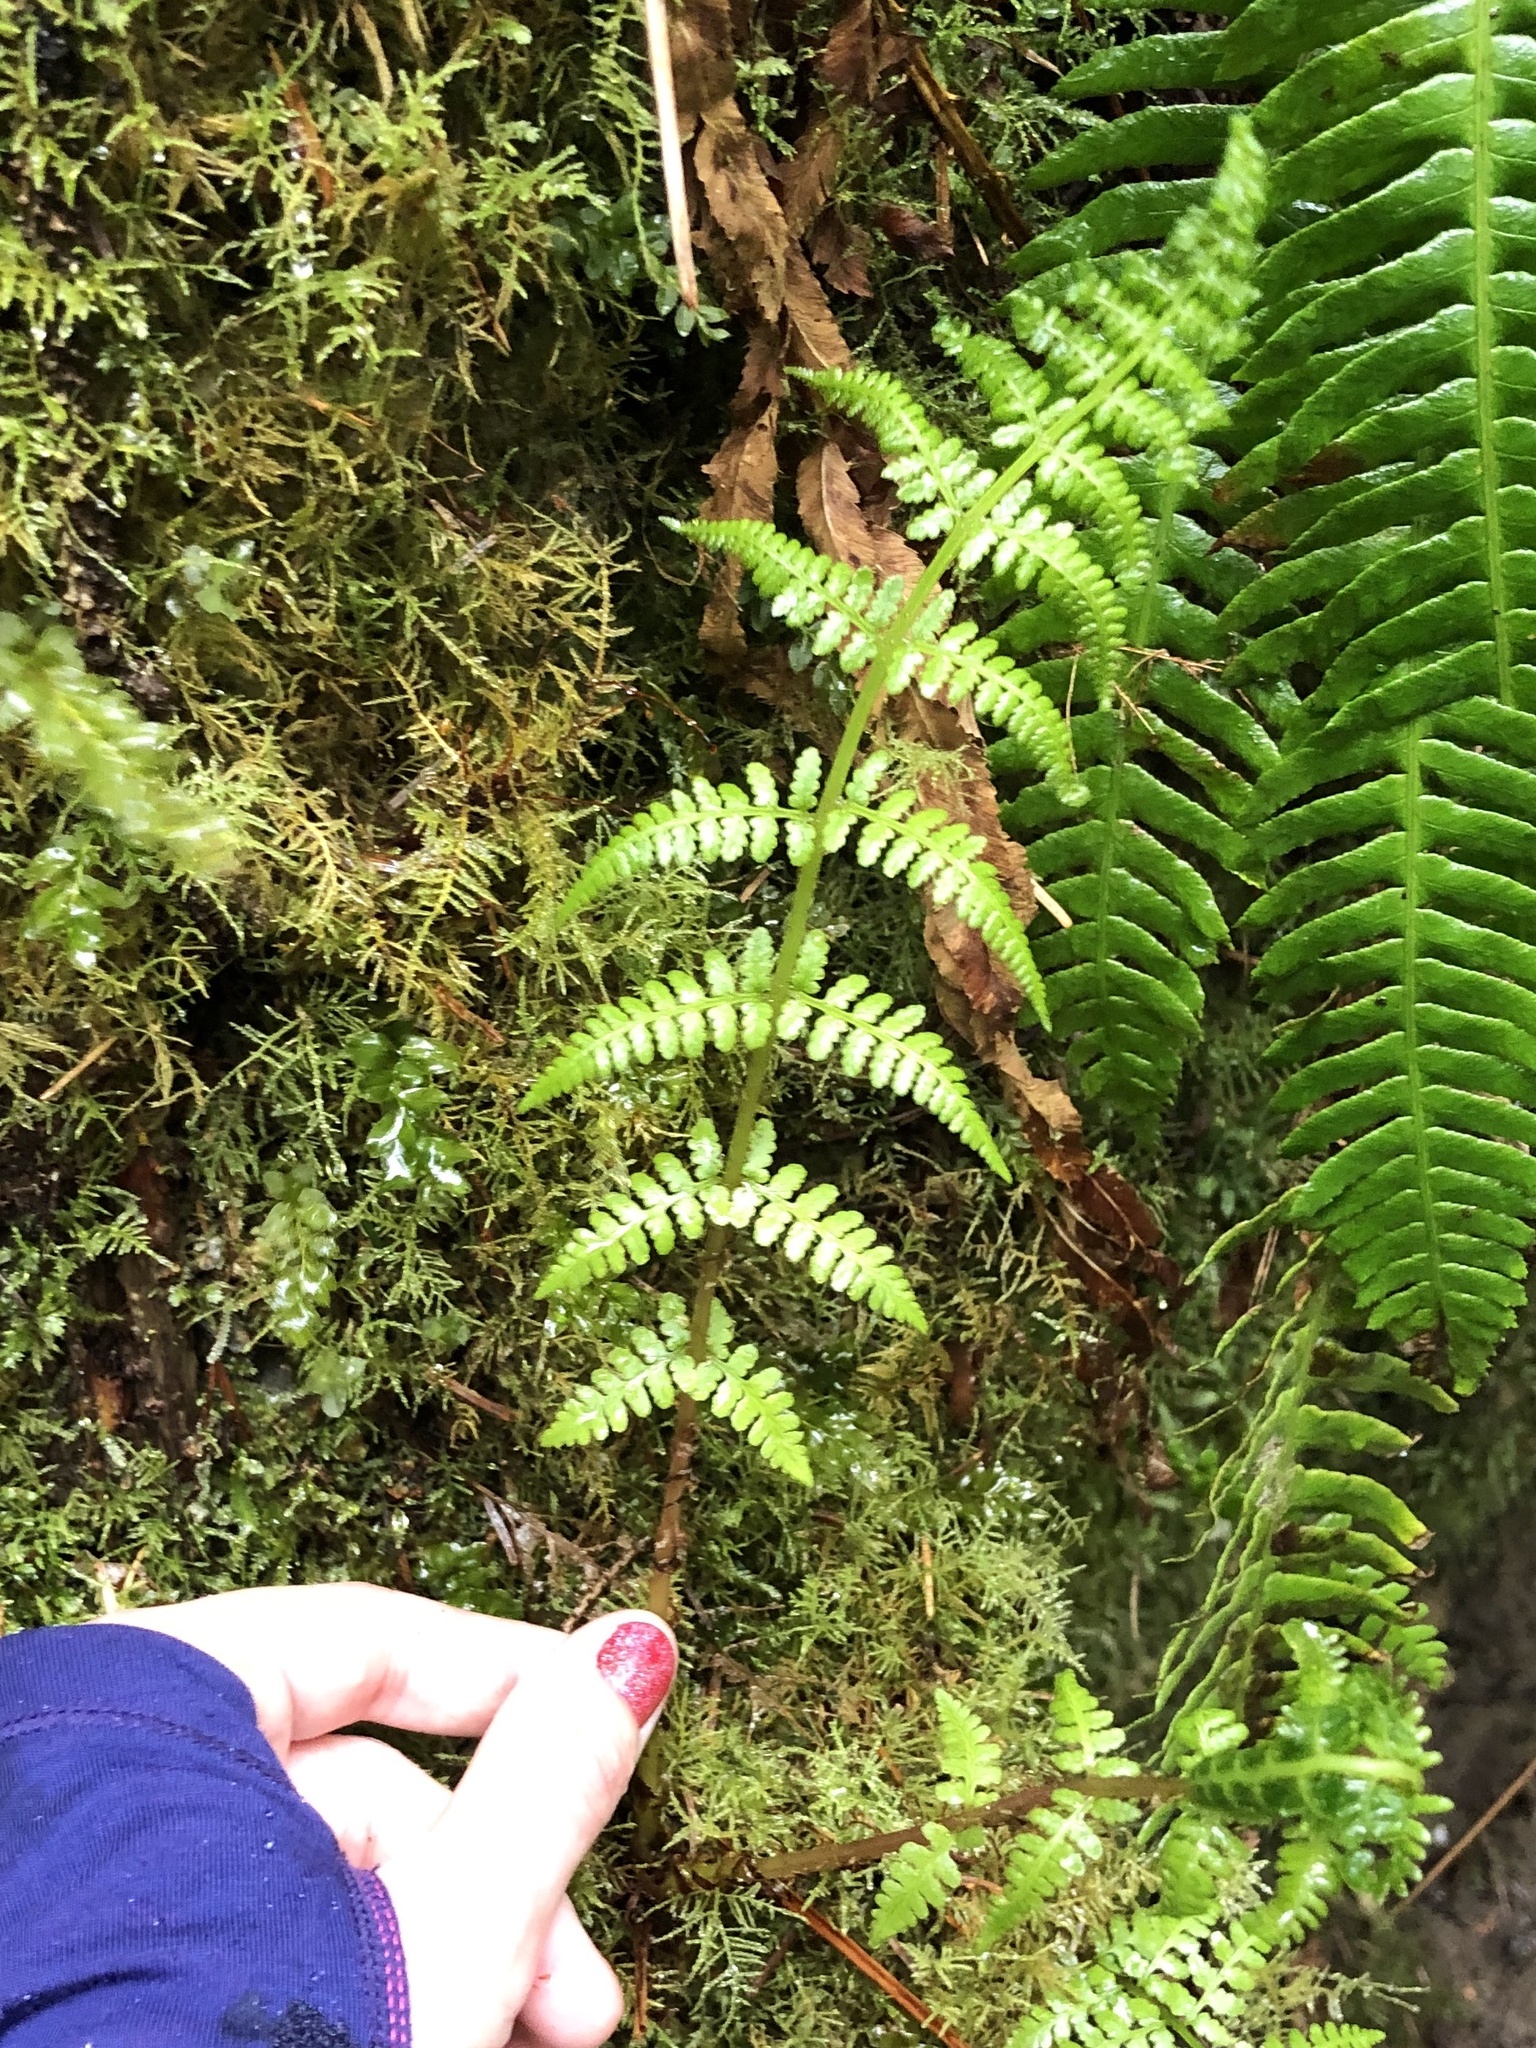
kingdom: Plantae
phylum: Tracheophyta
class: Polypodiopsida
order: Polypodiales
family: Athyriaceae
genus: Athyrium
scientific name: Athyrium cyclosorum
